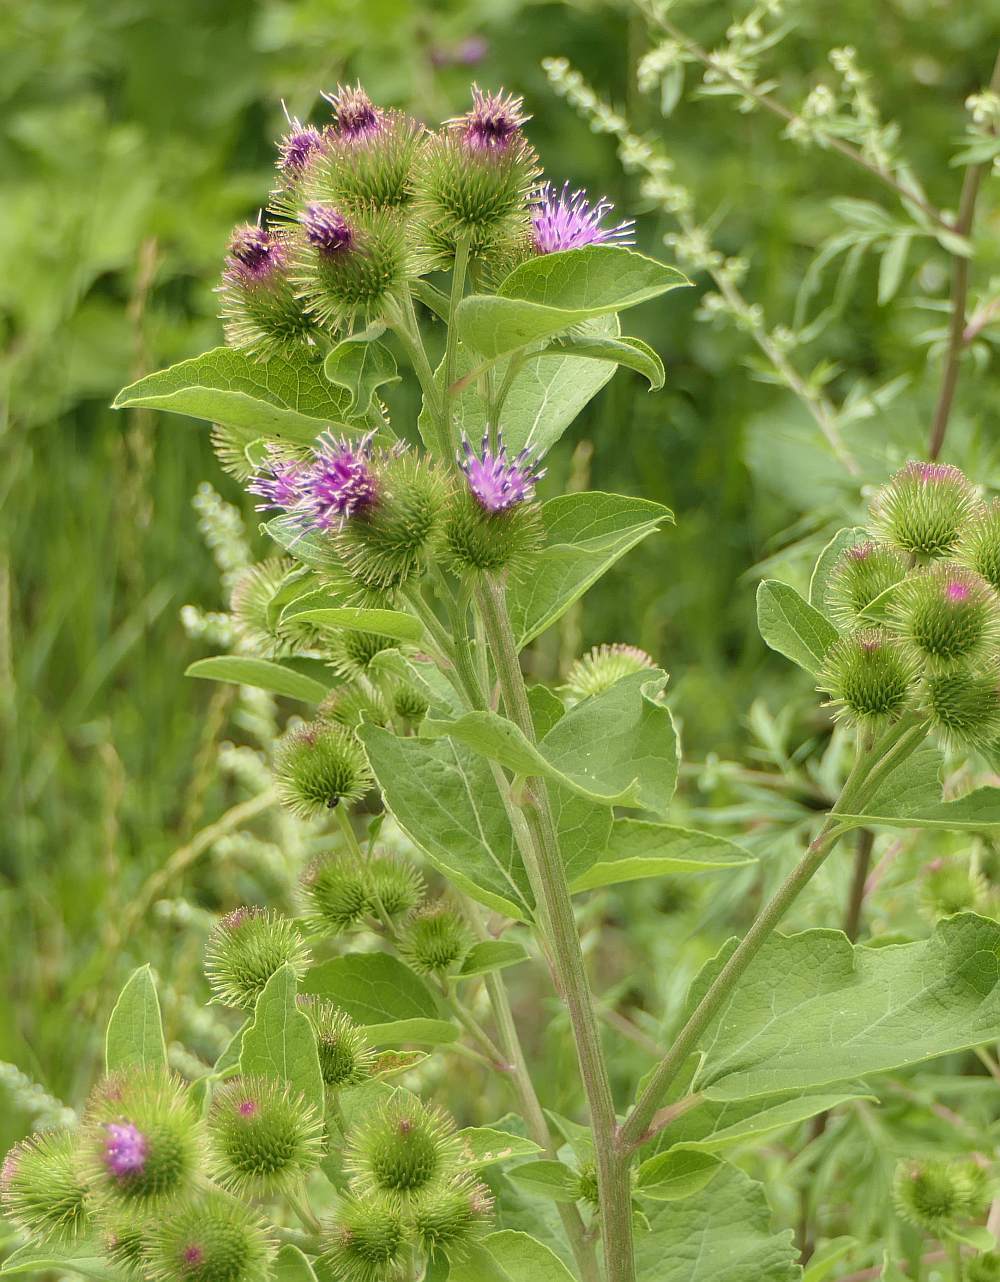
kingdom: Plantae
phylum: Tracheophyta
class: Magnoliopsida
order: Asterales
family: Asteraceae
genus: Arctium
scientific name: Arctium minus
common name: Lesser burdock
